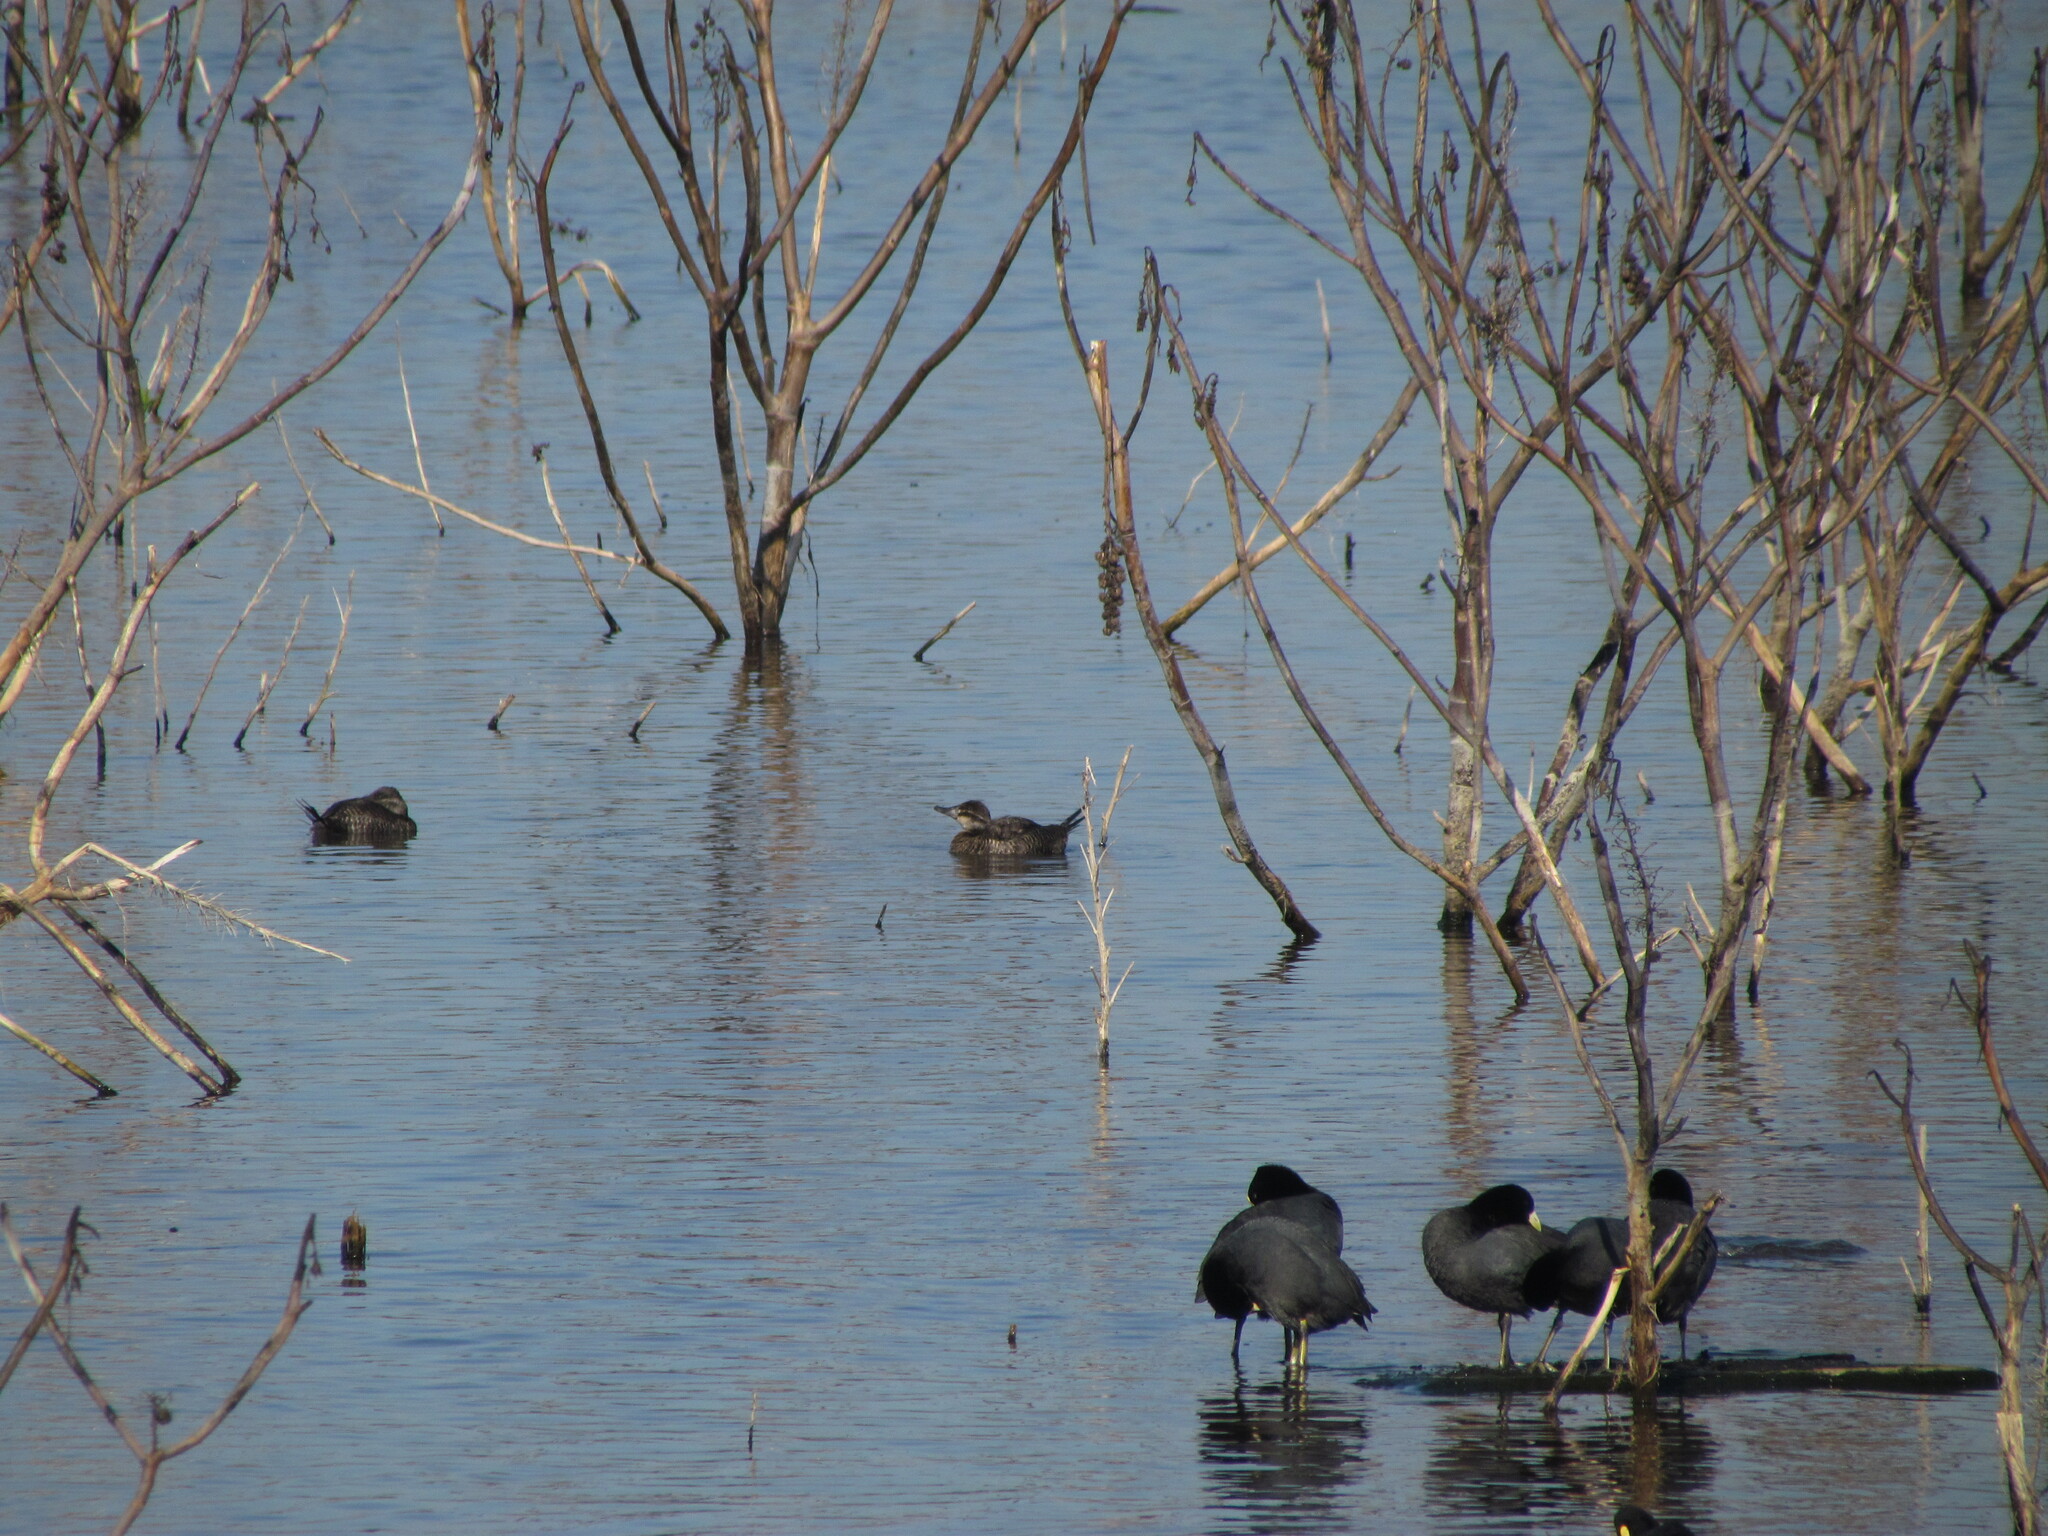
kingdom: Animalia
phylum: Chordata
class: Aves
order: Anseriformes
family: Anatidae
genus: Oxyura
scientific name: Oxyura vittata
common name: Lake duck
